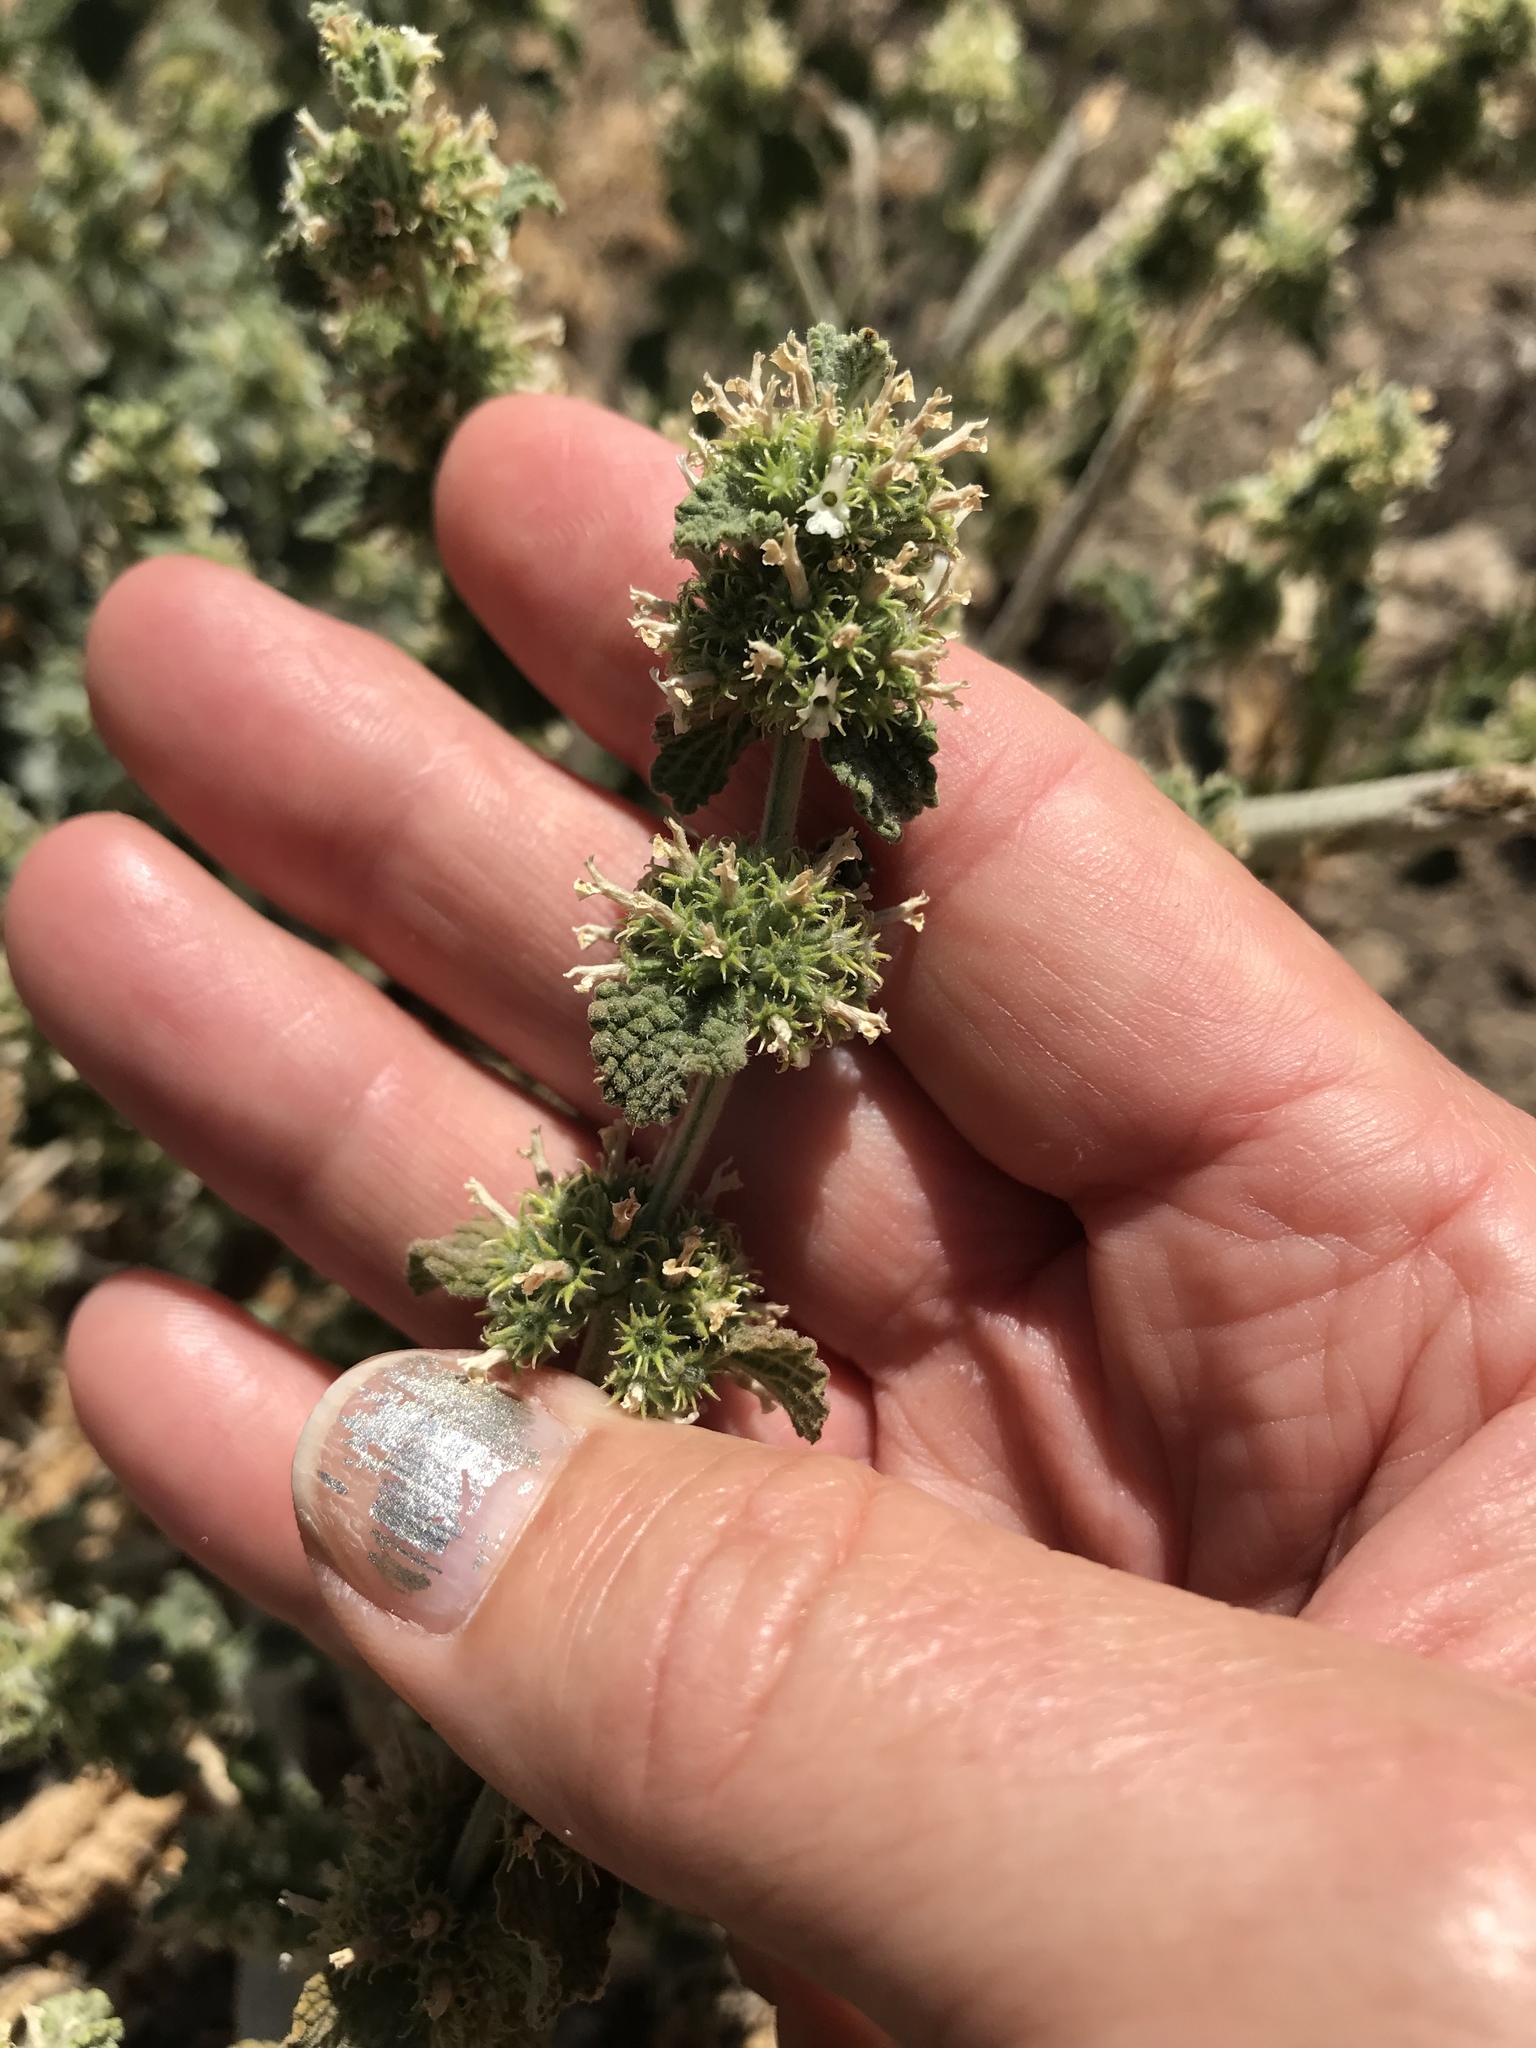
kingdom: Plantae
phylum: Tracheophyta
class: Magnoliopsida
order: Lamiales
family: Lamiaceae
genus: Marrubium
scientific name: Marrubium vulgare
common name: Horehound
